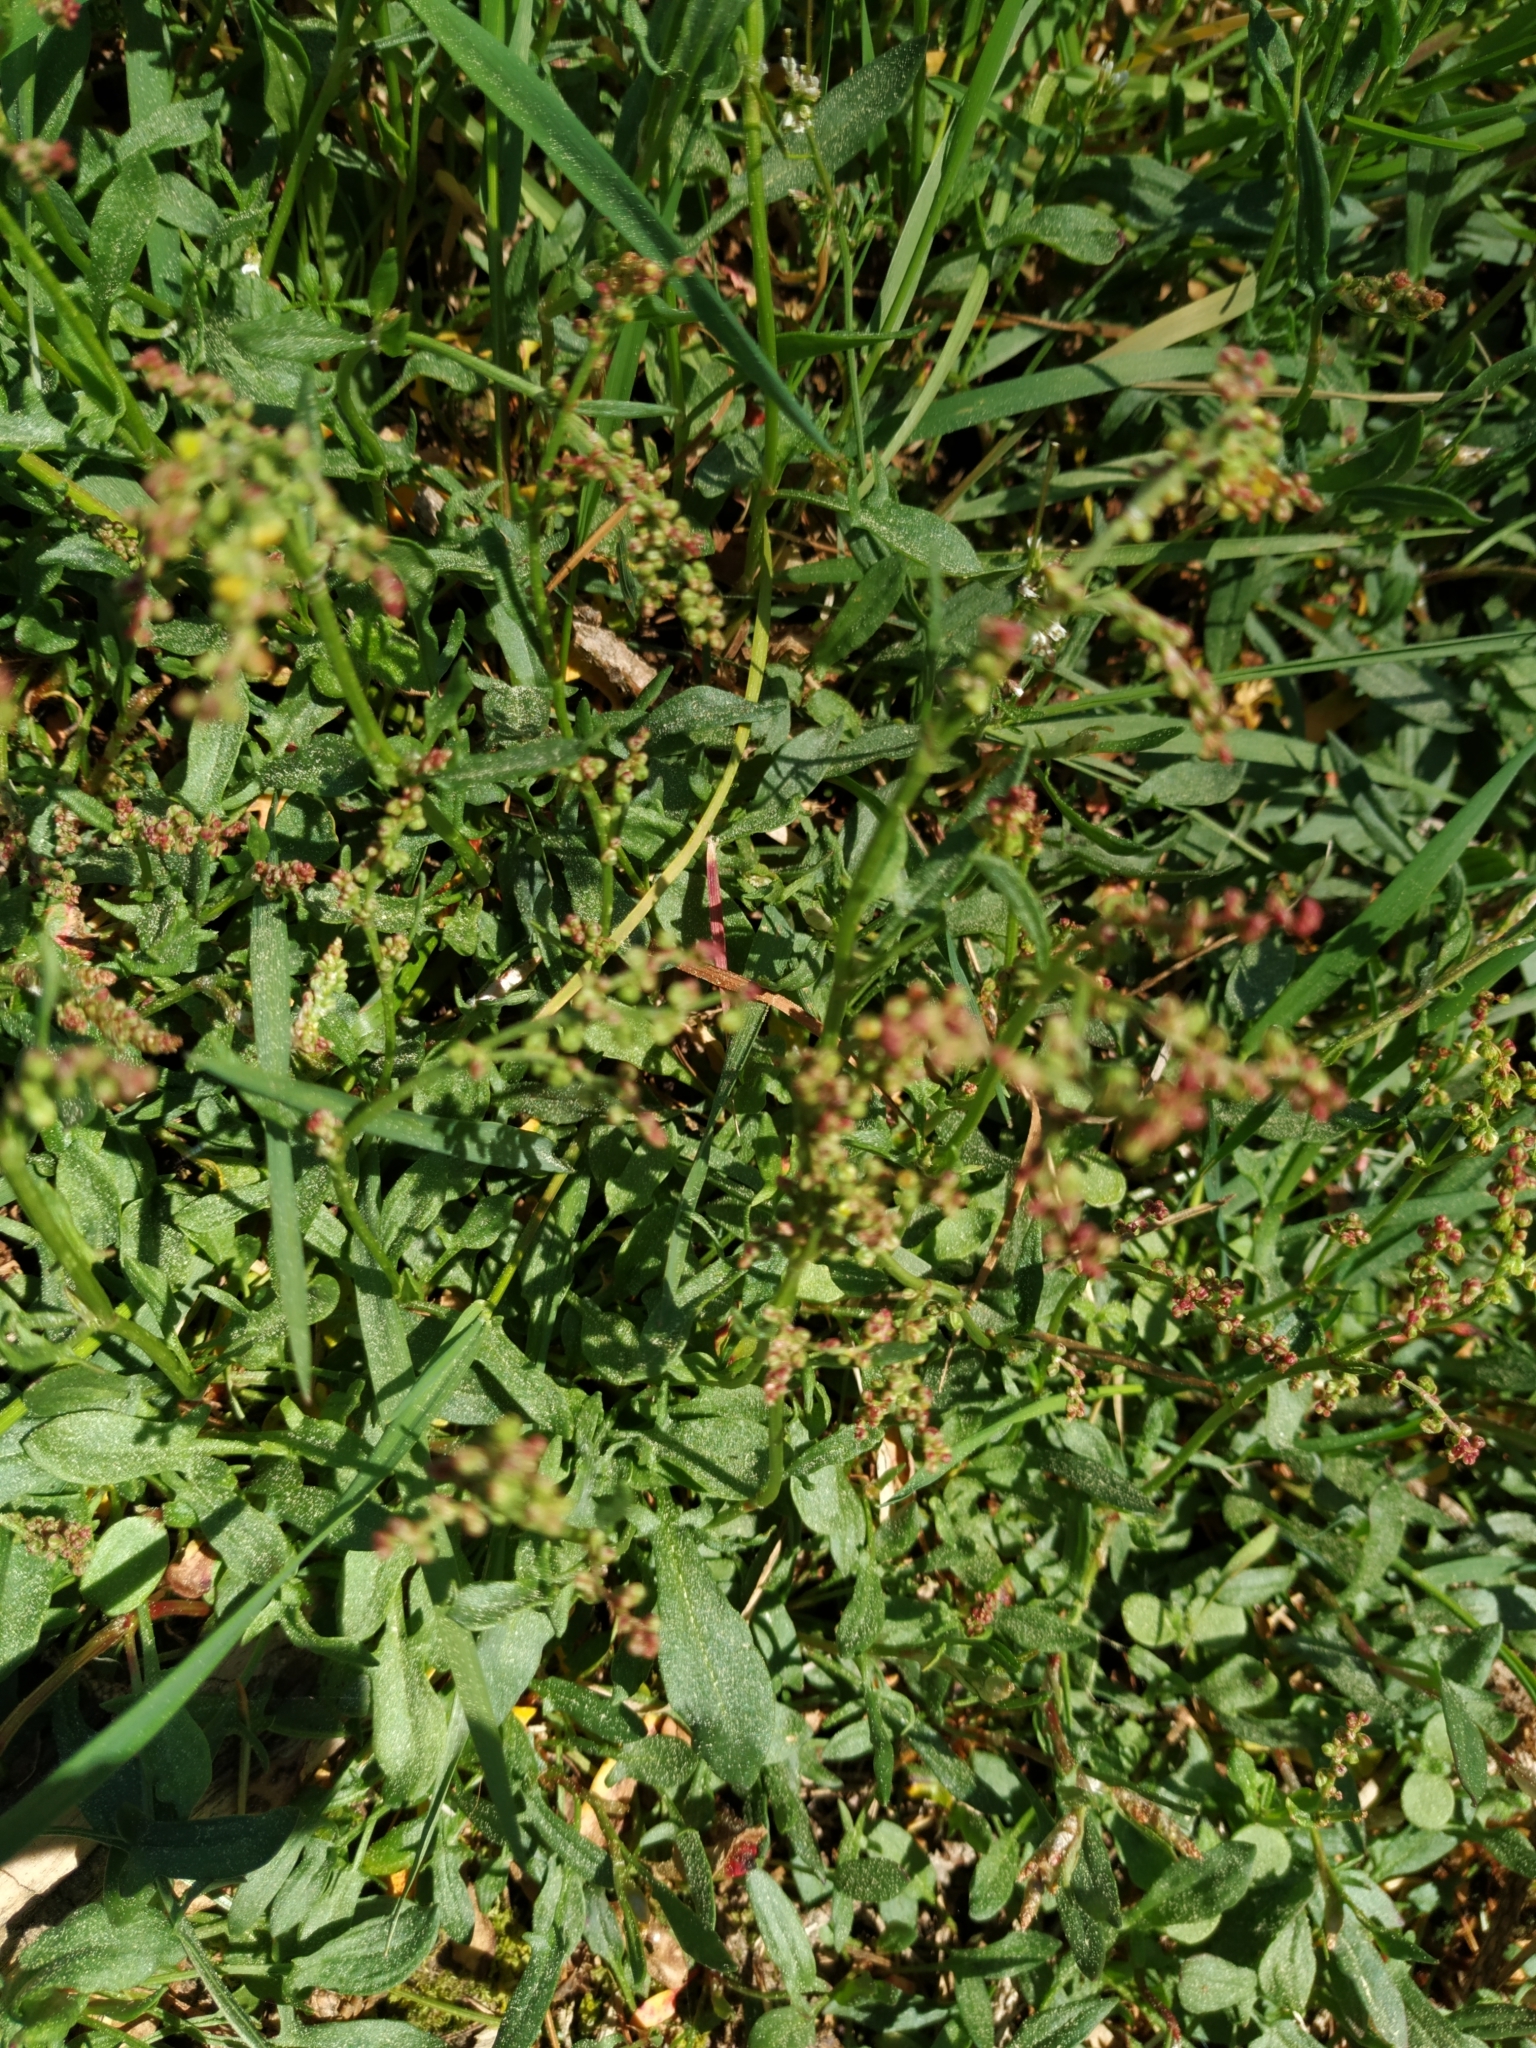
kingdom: Plantae
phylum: Tracheophyta
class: Magnoliopsida
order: Caryophyllales
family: Polygonaceae
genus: Rumex
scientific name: Rumex acetosella
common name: Common sheep sorrel
